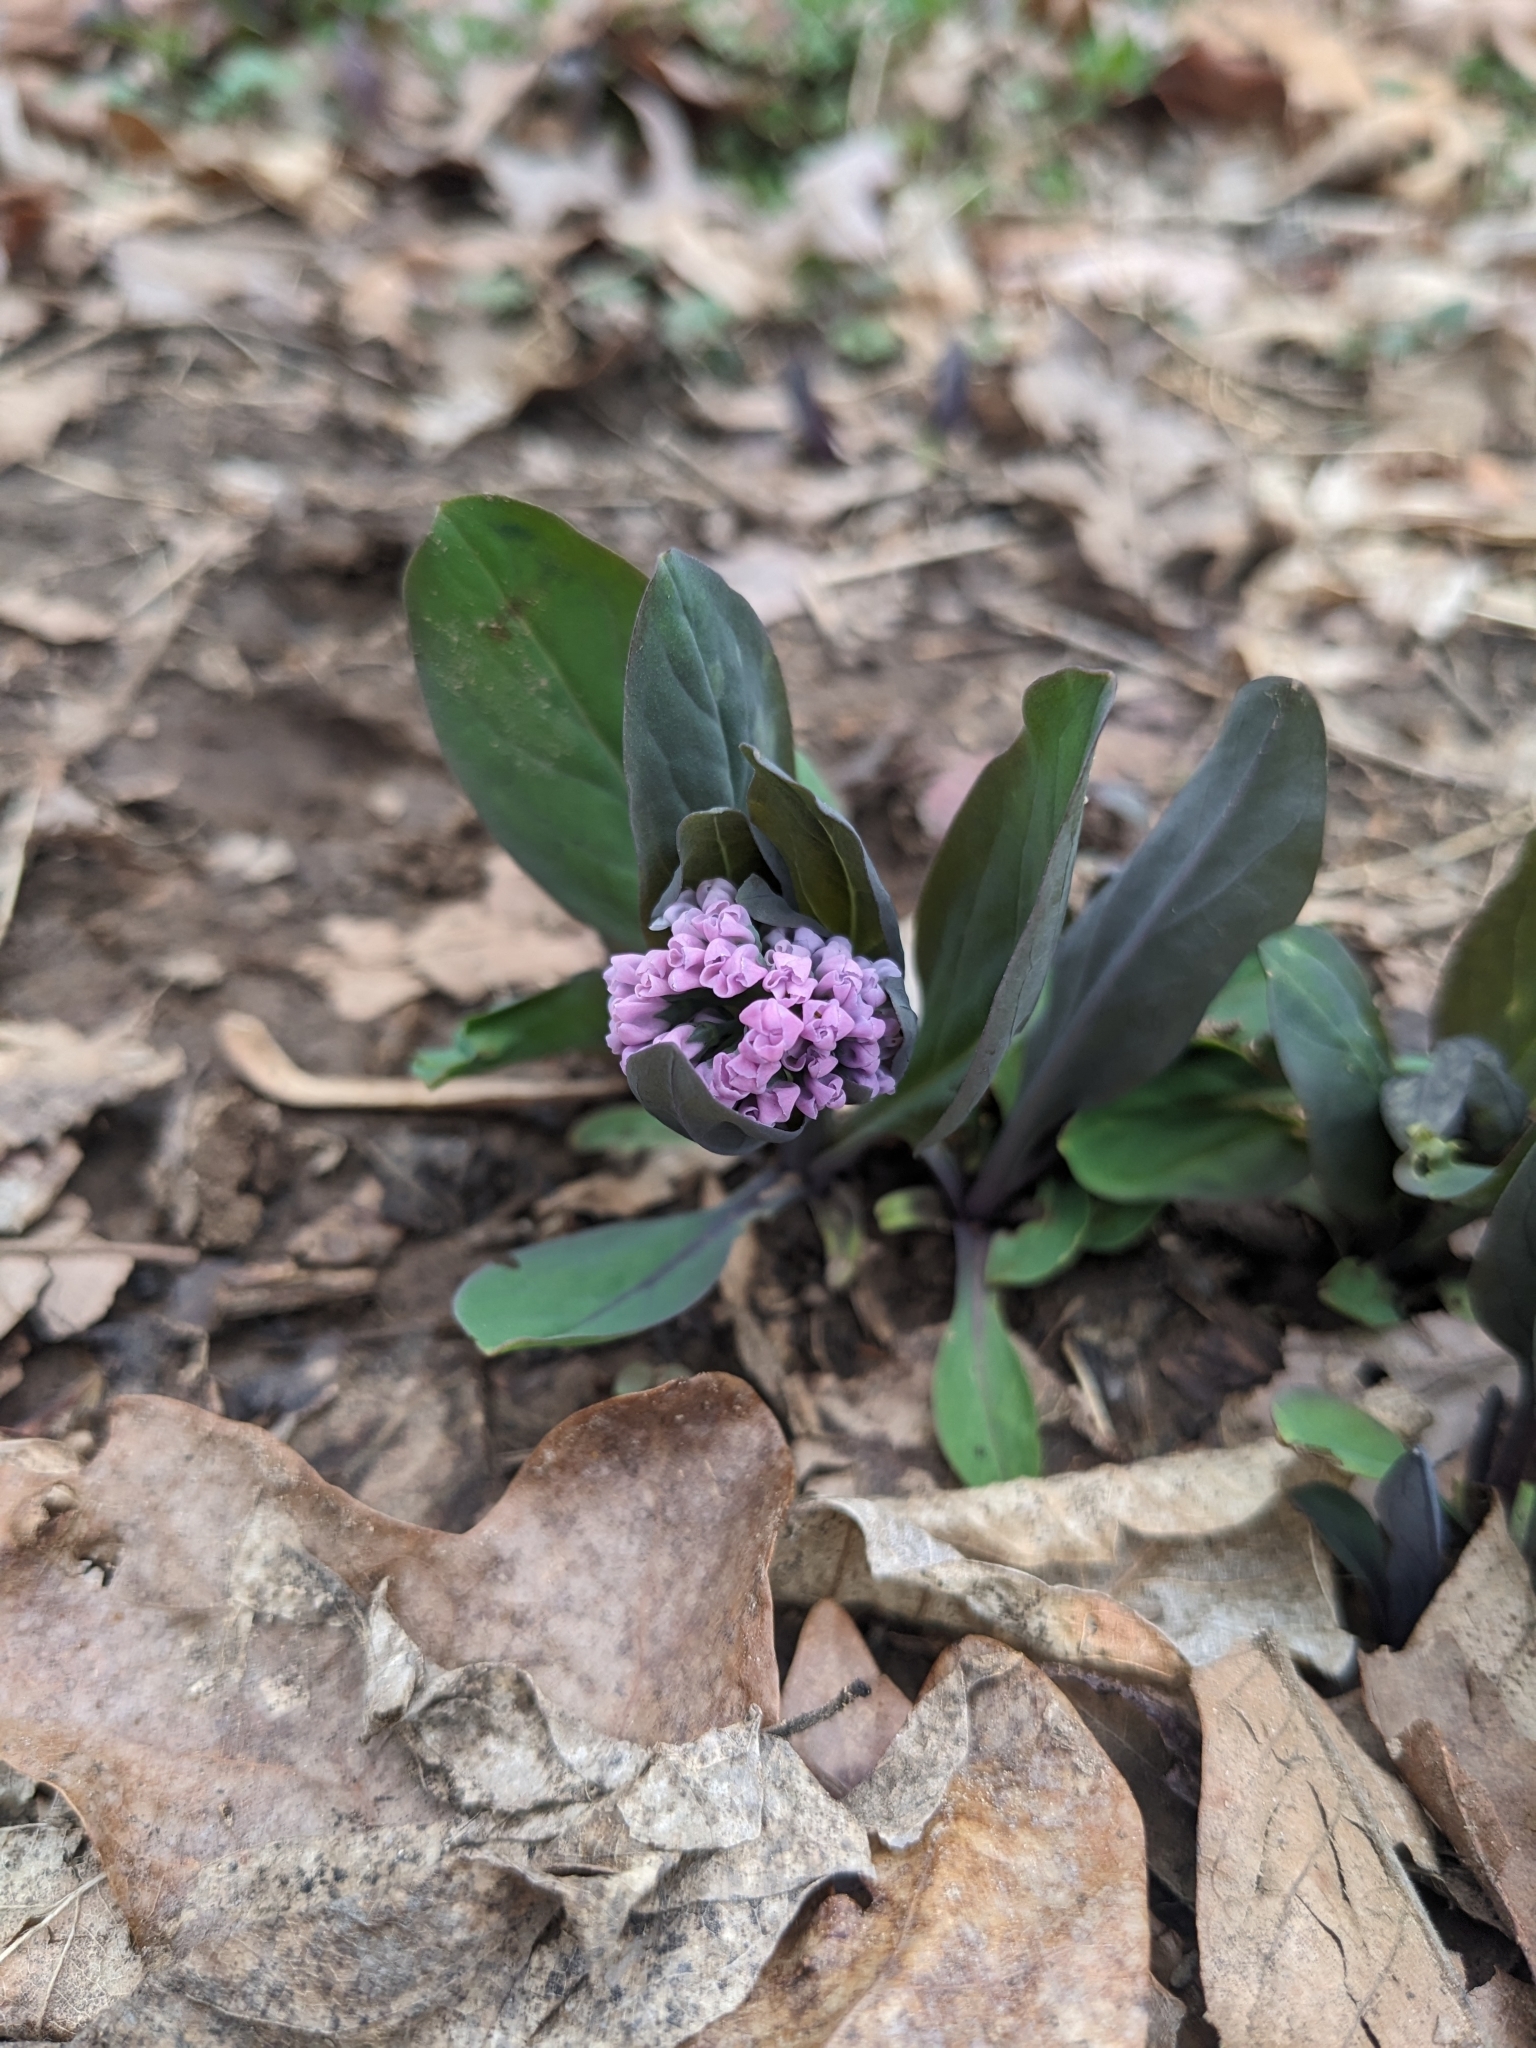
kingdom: Plantae
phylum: Tracheophyta
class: Magnoliopsida
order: Boraginales
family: Boraginaceae
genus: Mertensia
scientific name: Mertensia virginica
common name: Virginia bluebells
